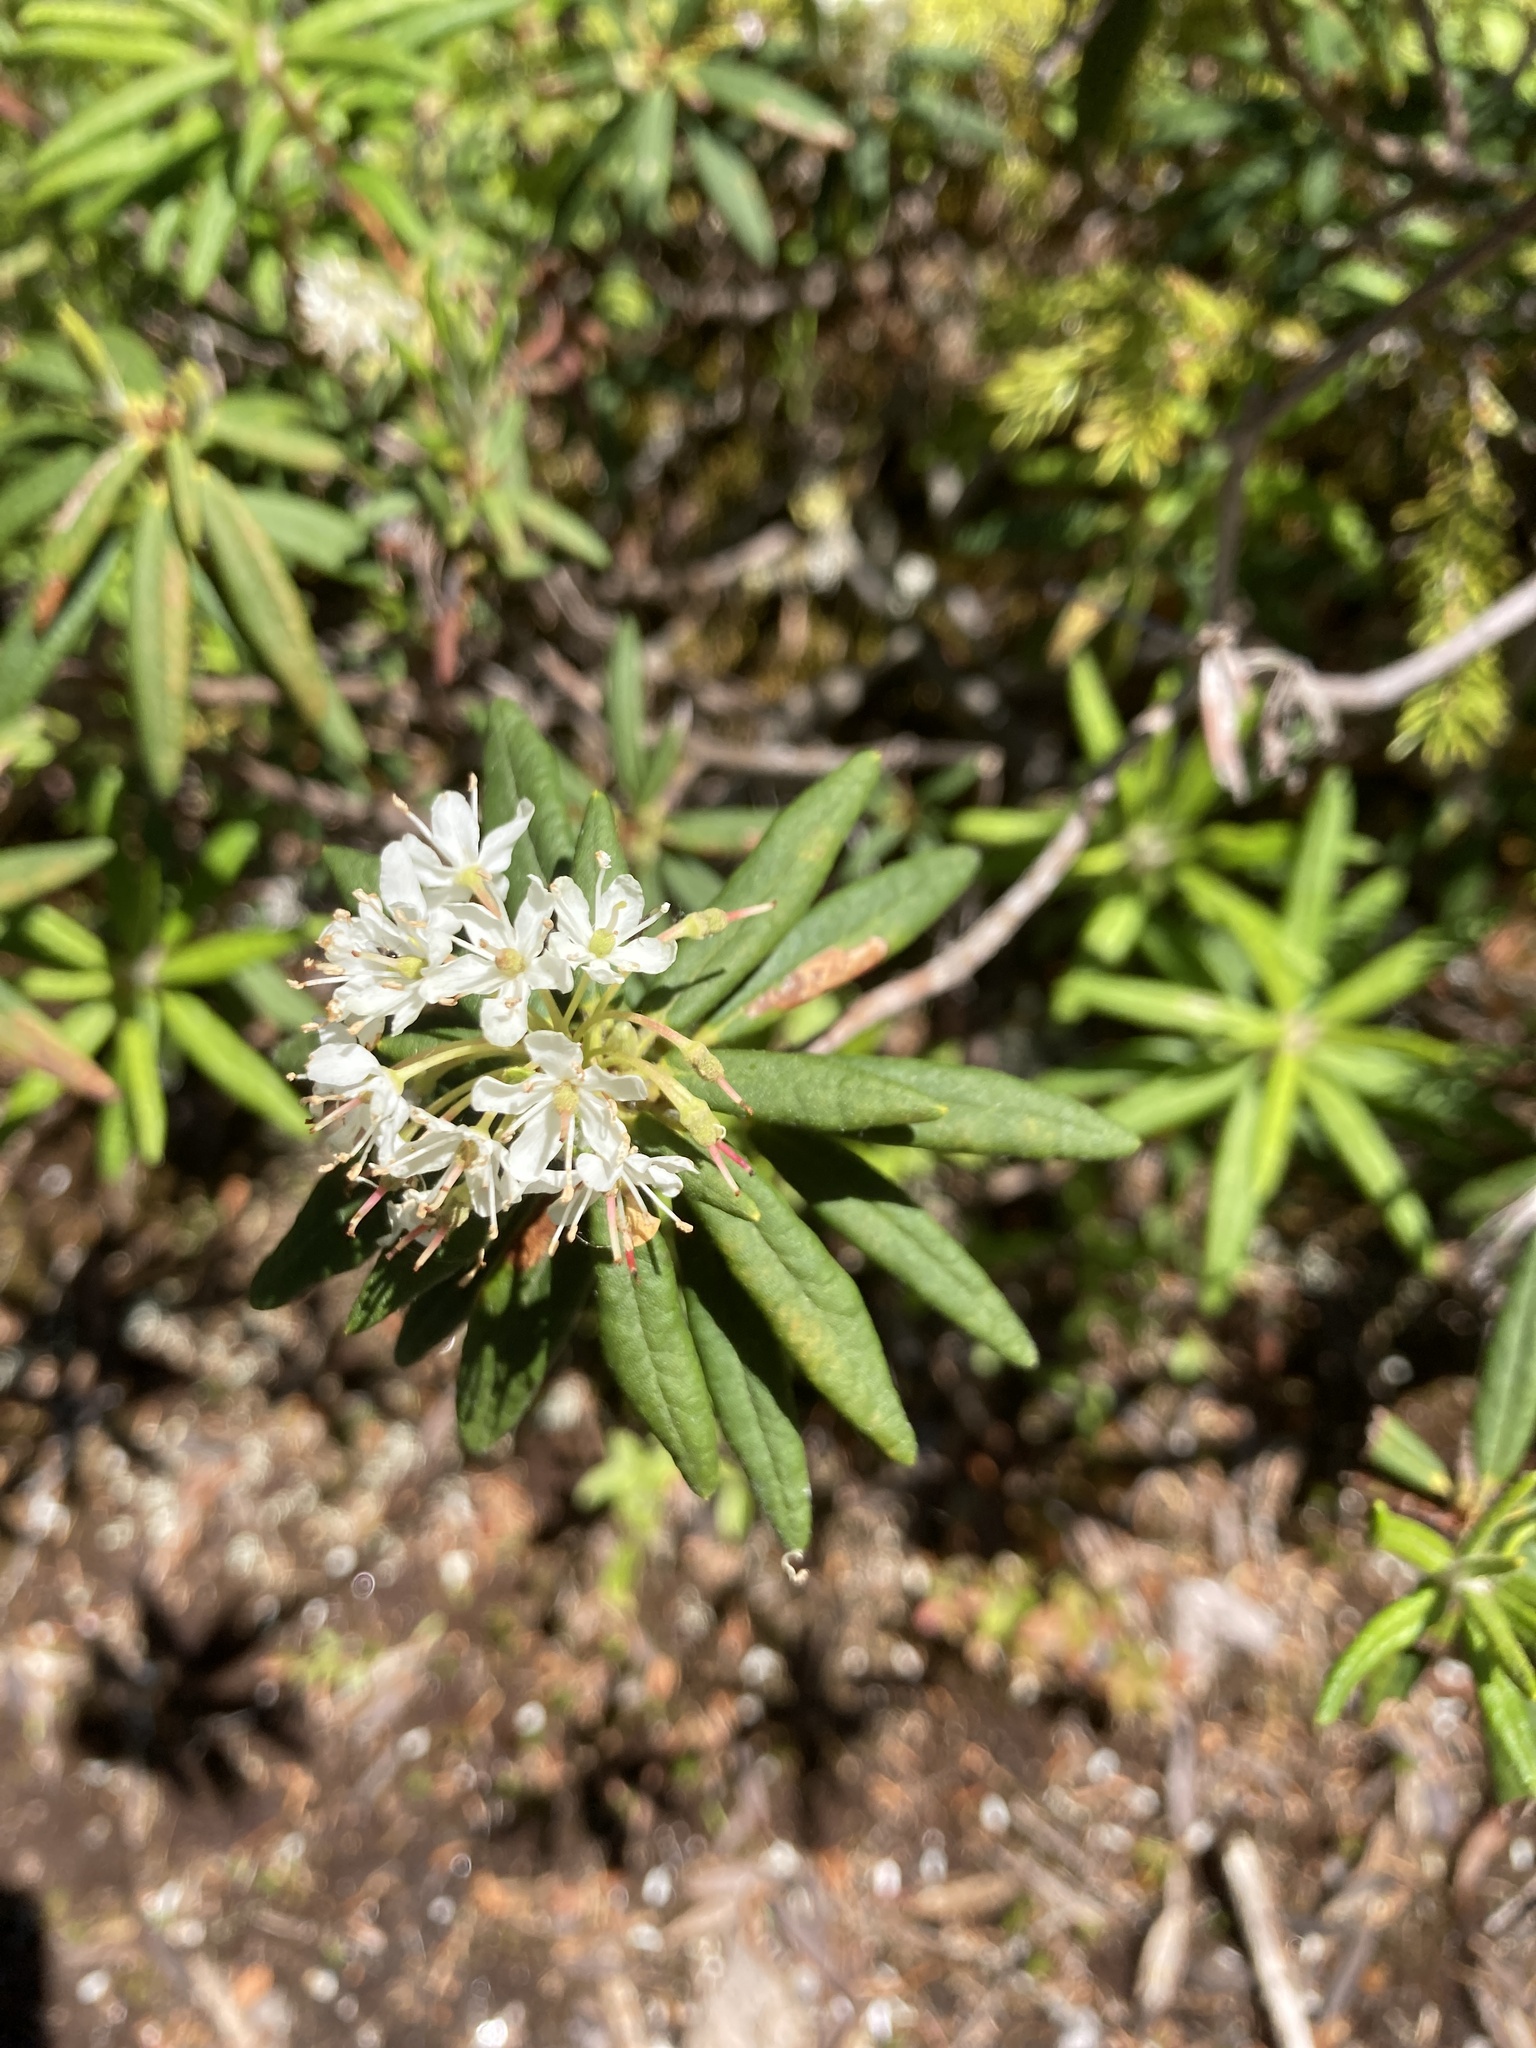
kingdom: Plantae
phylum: Tracheophyta
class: Magnoliopsida
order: Ericales
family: Ericaceae
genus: Rhododendron
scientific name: Rhododendron groenlandicum
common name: Bog labrador tea
